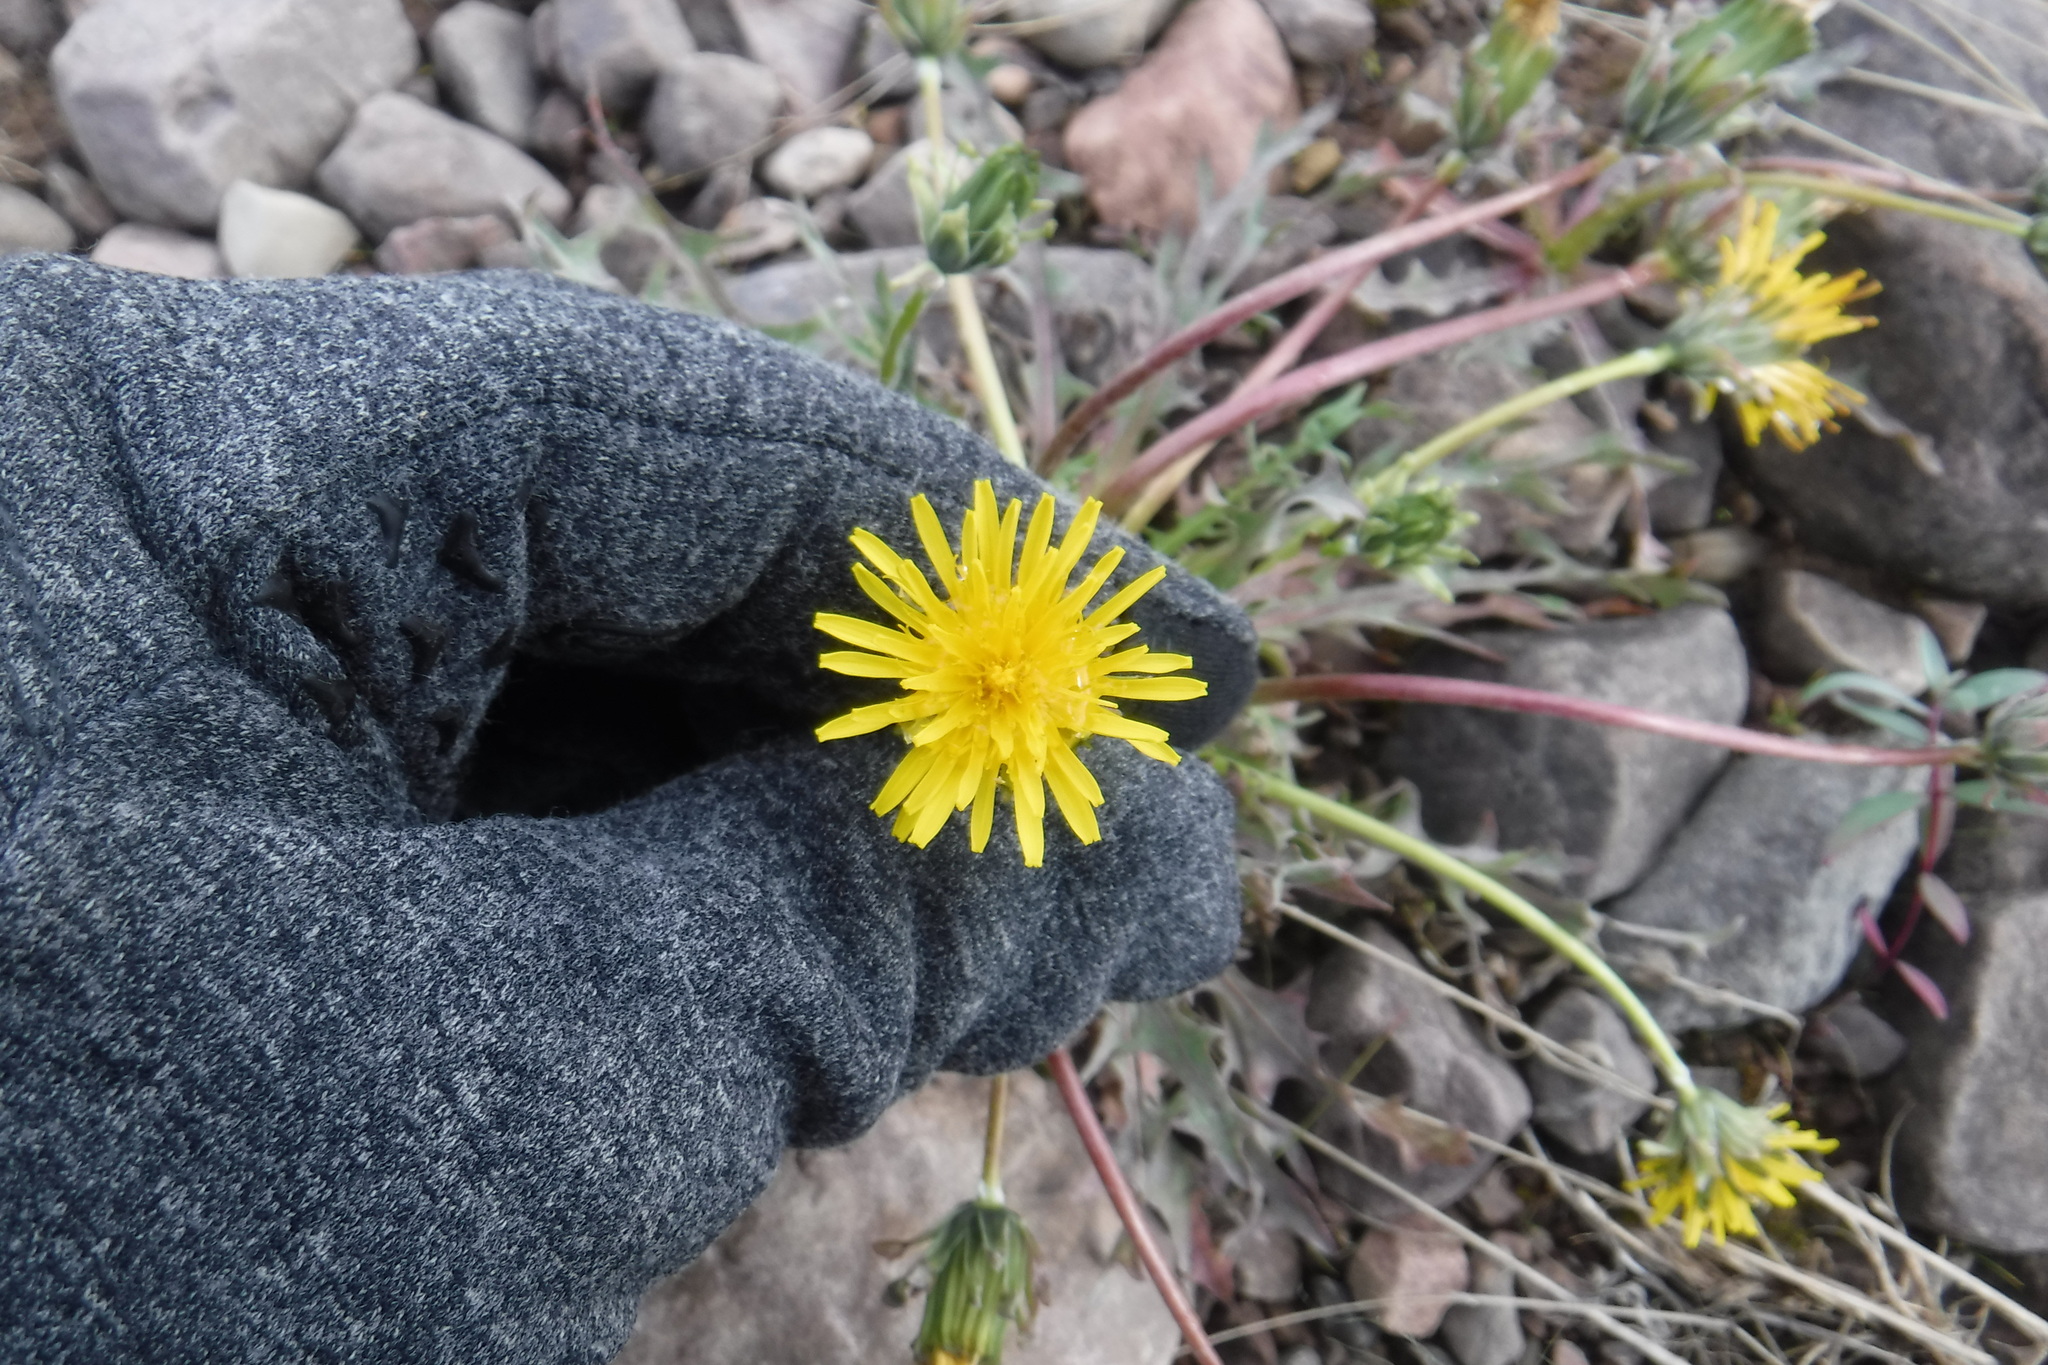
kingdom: Plantae
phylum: Tracheophyta
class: Magnoliopsida
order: Asterales
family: Asteraceae
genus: Taraxacum
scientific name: Taraxacum ceratophorum
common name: Horn-bearing dandelion
